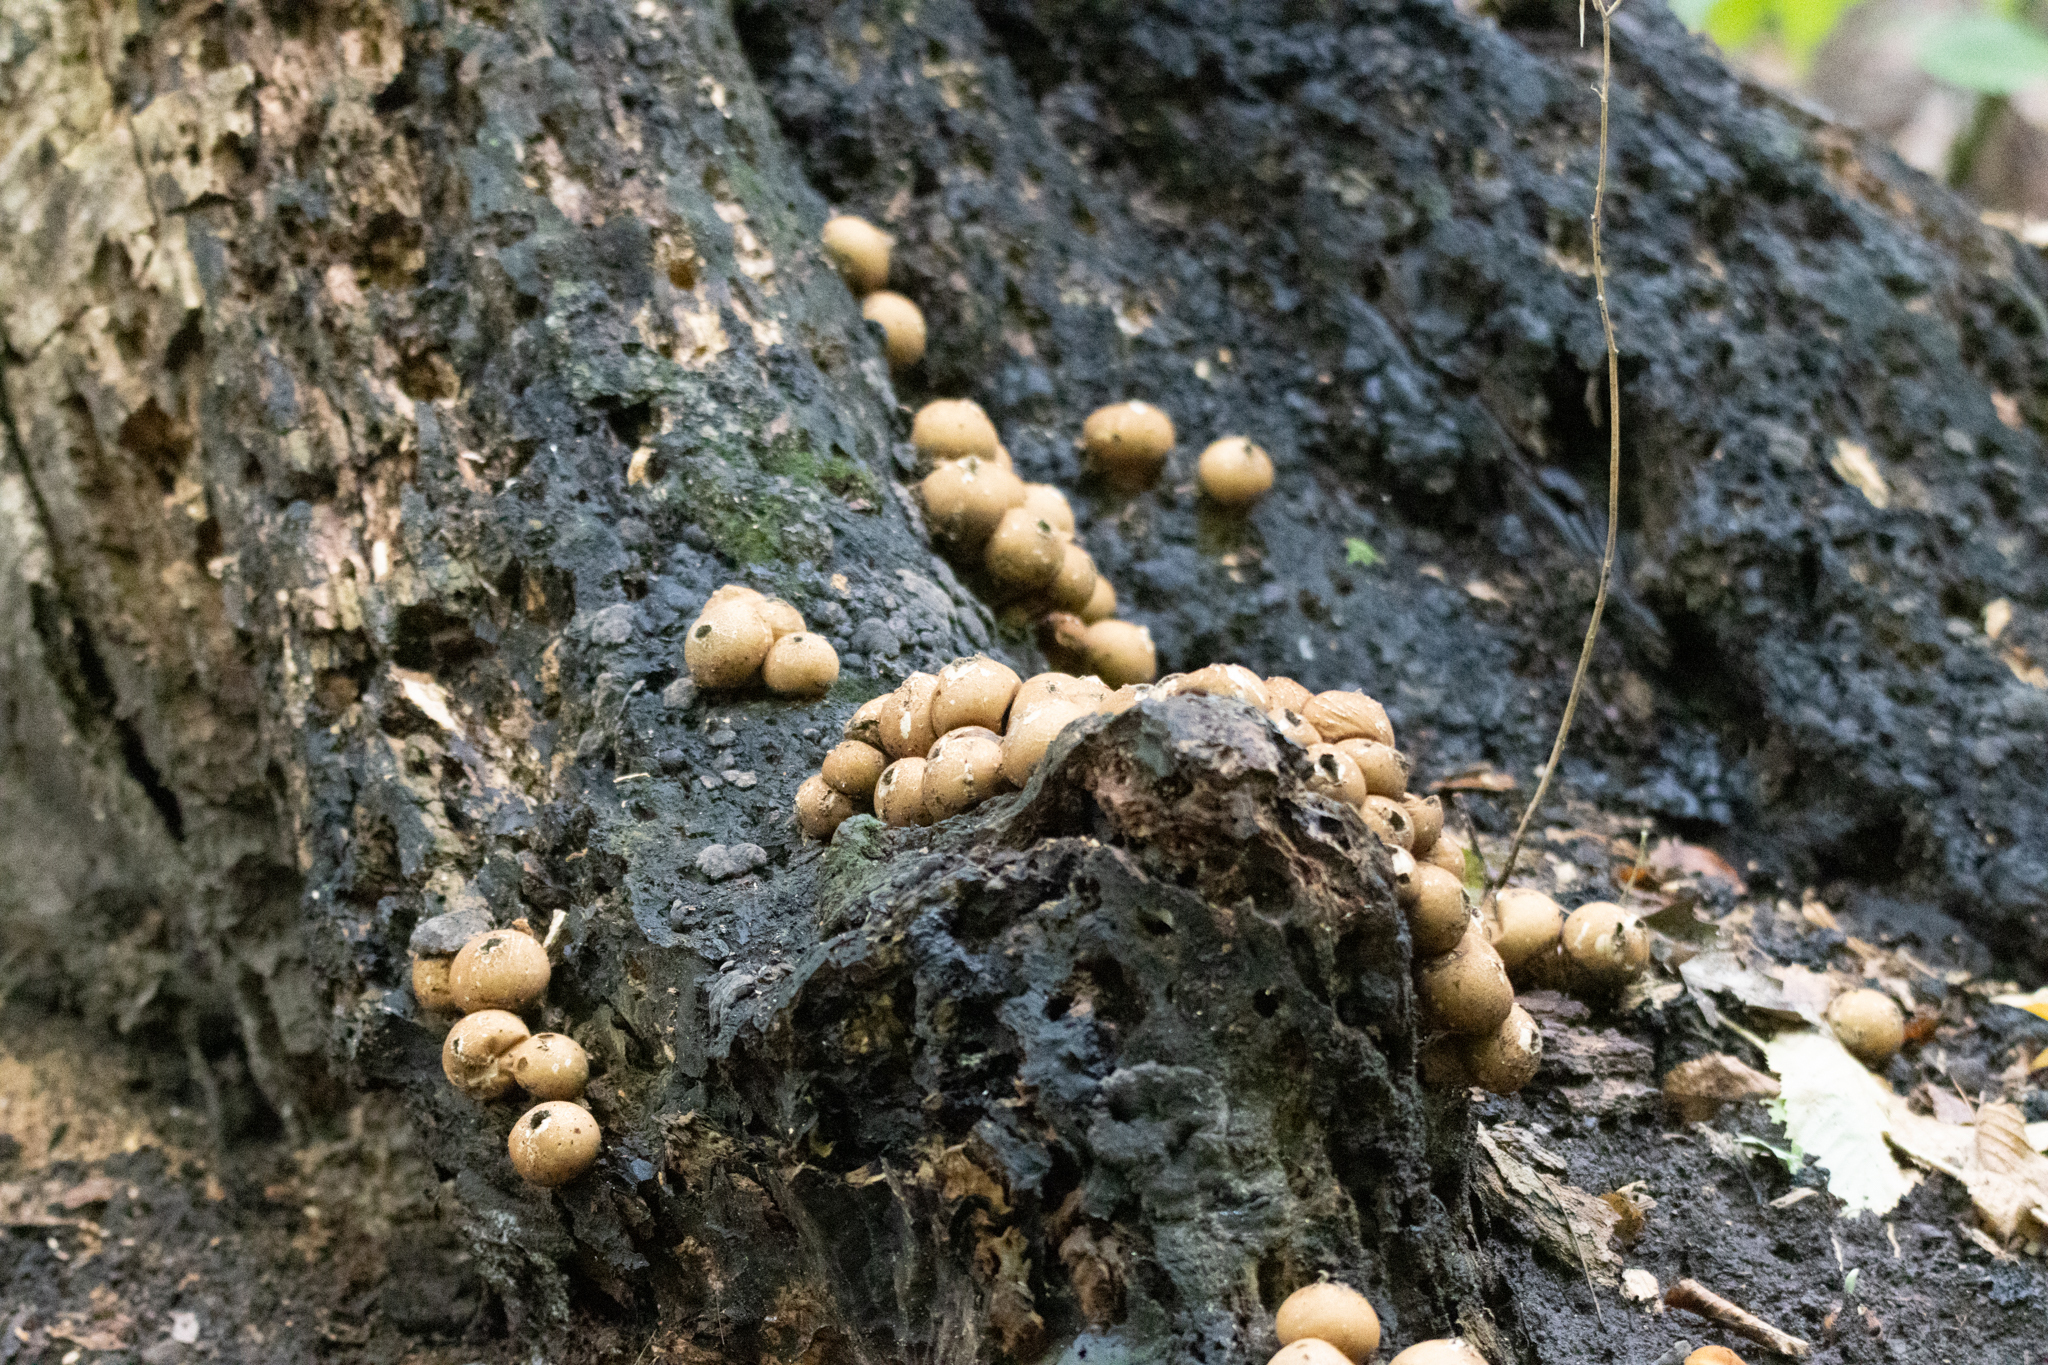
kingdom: Fungi
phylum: Basidiomycota
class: Agaricomycetes
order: Agaricales
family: Lycoperdaceae
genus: Apioperdon
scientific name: Apioperdon pyriforme
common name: Pear-shaped puffball
